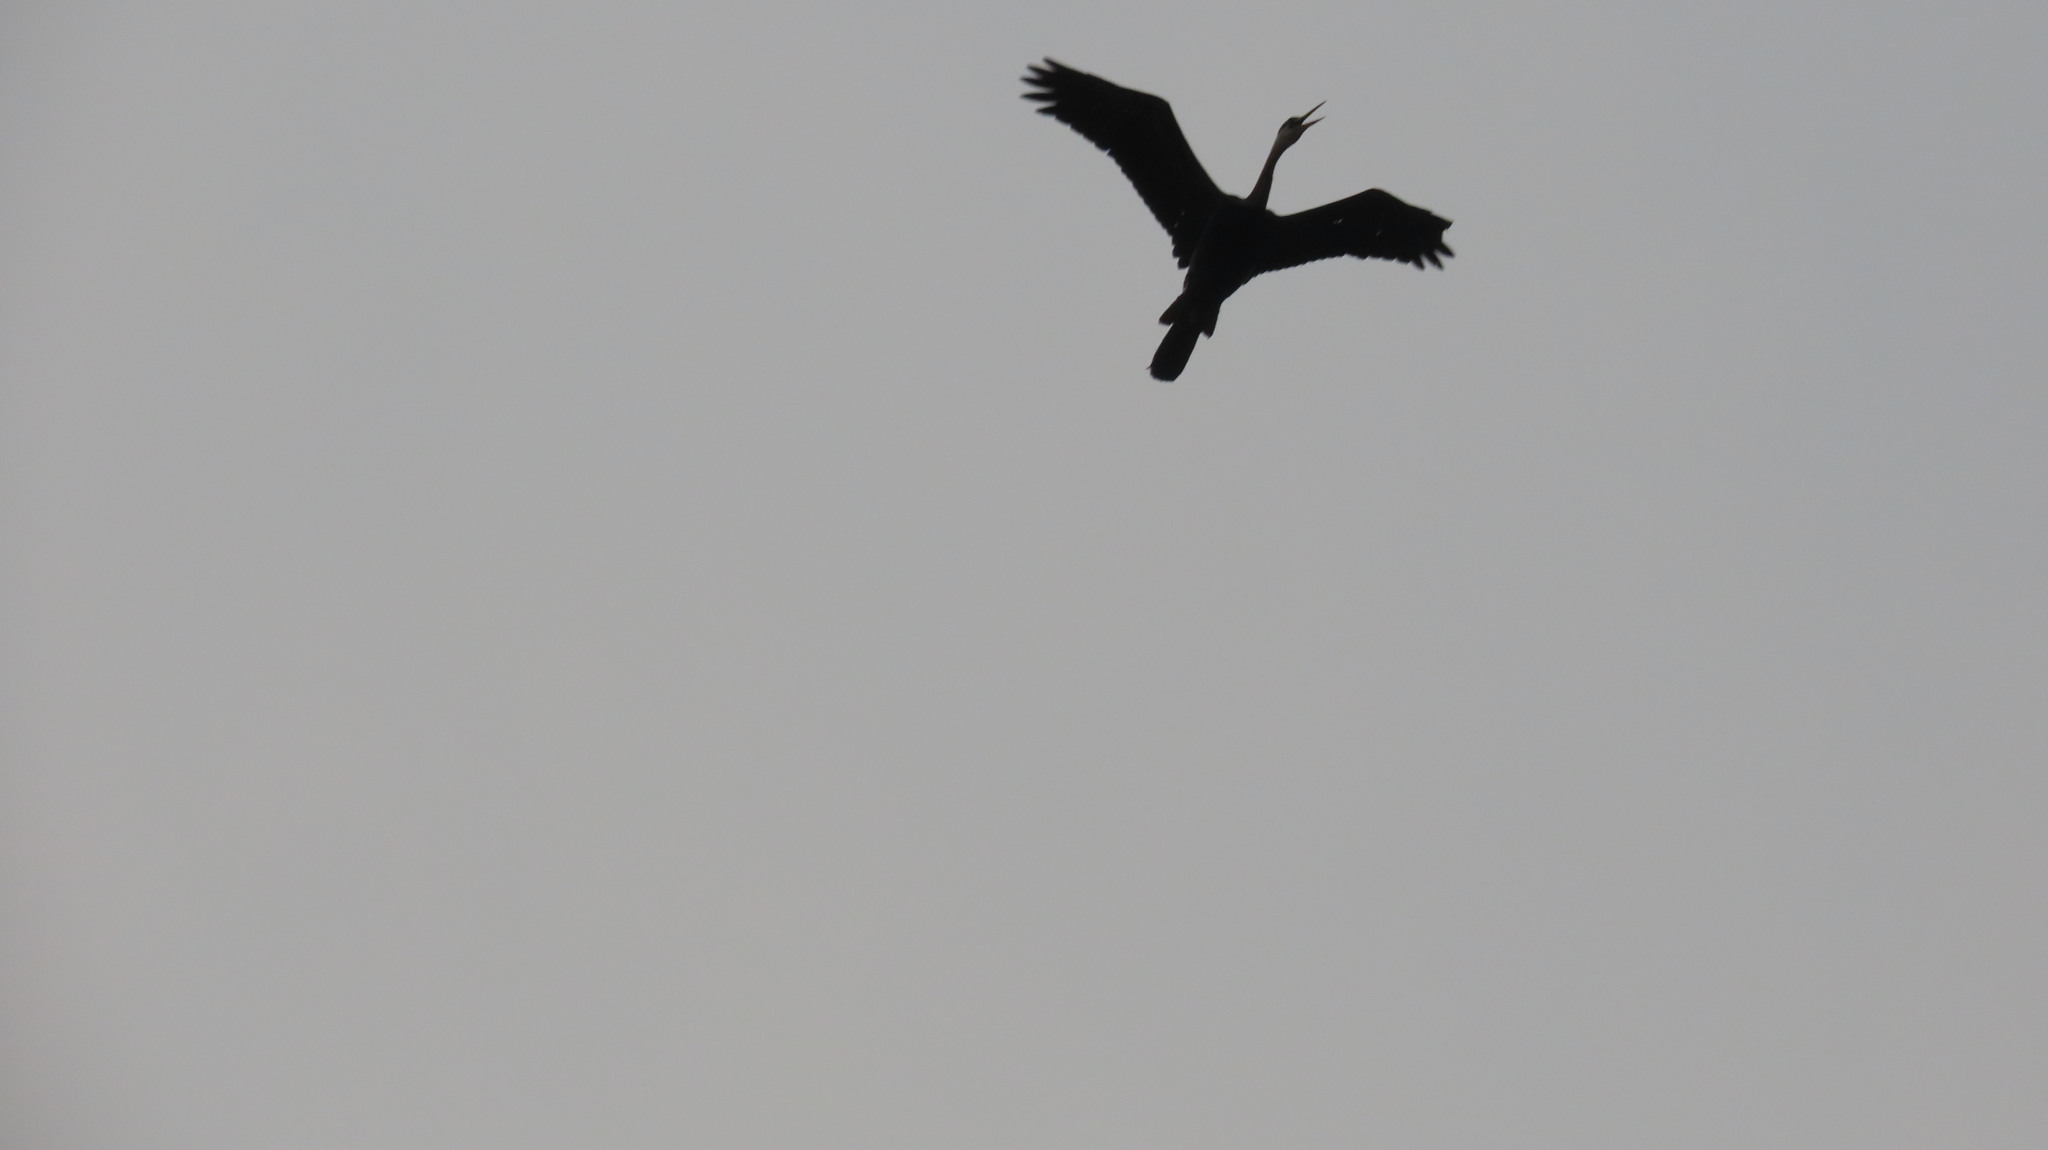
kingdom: Animalia
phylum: Chordata
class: Aves
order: Suliformes
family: Anhingidae
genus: Anhinga
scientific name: Anhinga melanogaster
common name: Oriental darter
